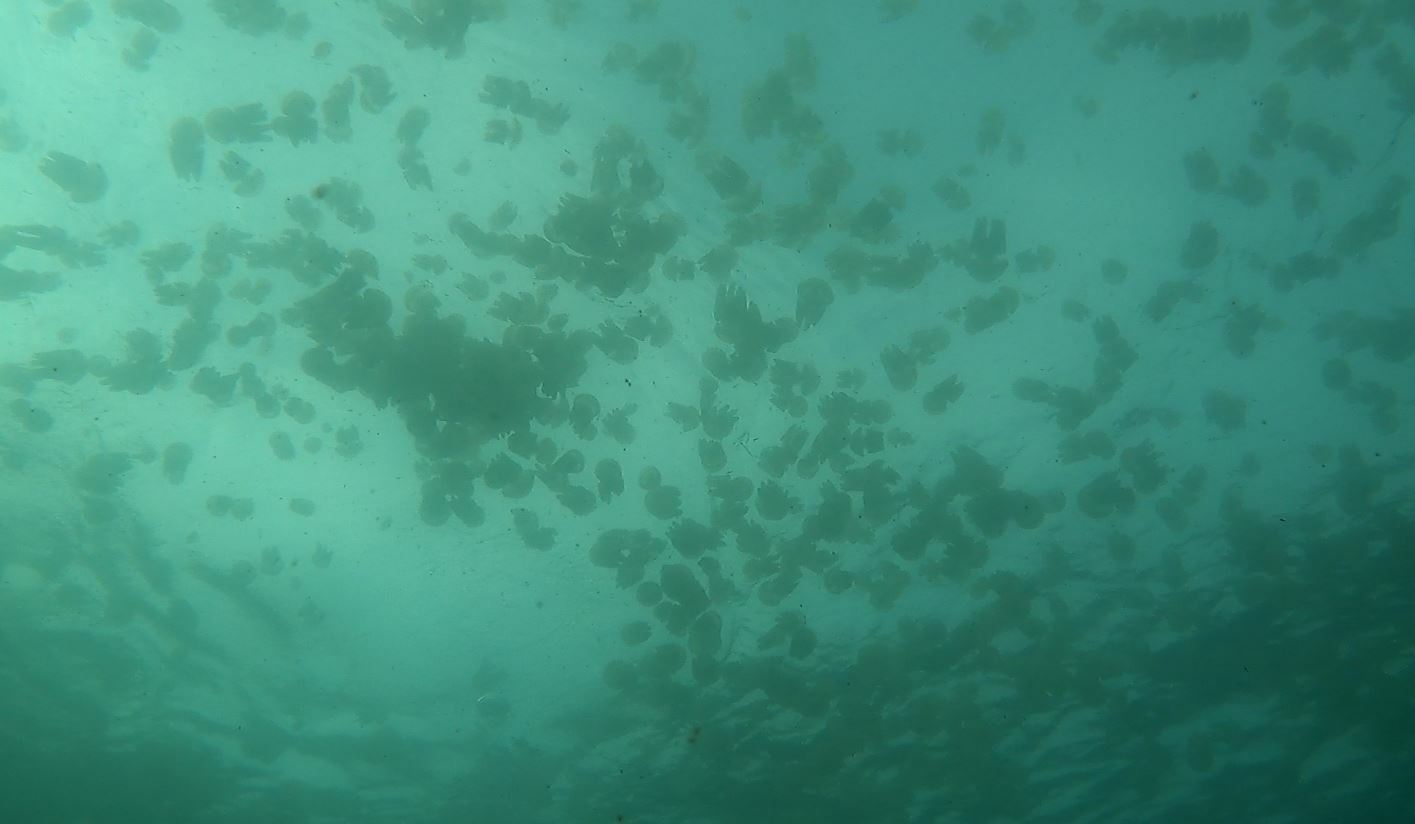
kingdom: Animalia
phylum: Cnidaria
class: Scyphozoa
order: Rhizostomeae
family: Catostylidae
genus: Catostylus
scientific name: Catostylus mosaicus
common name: Blue blubber
